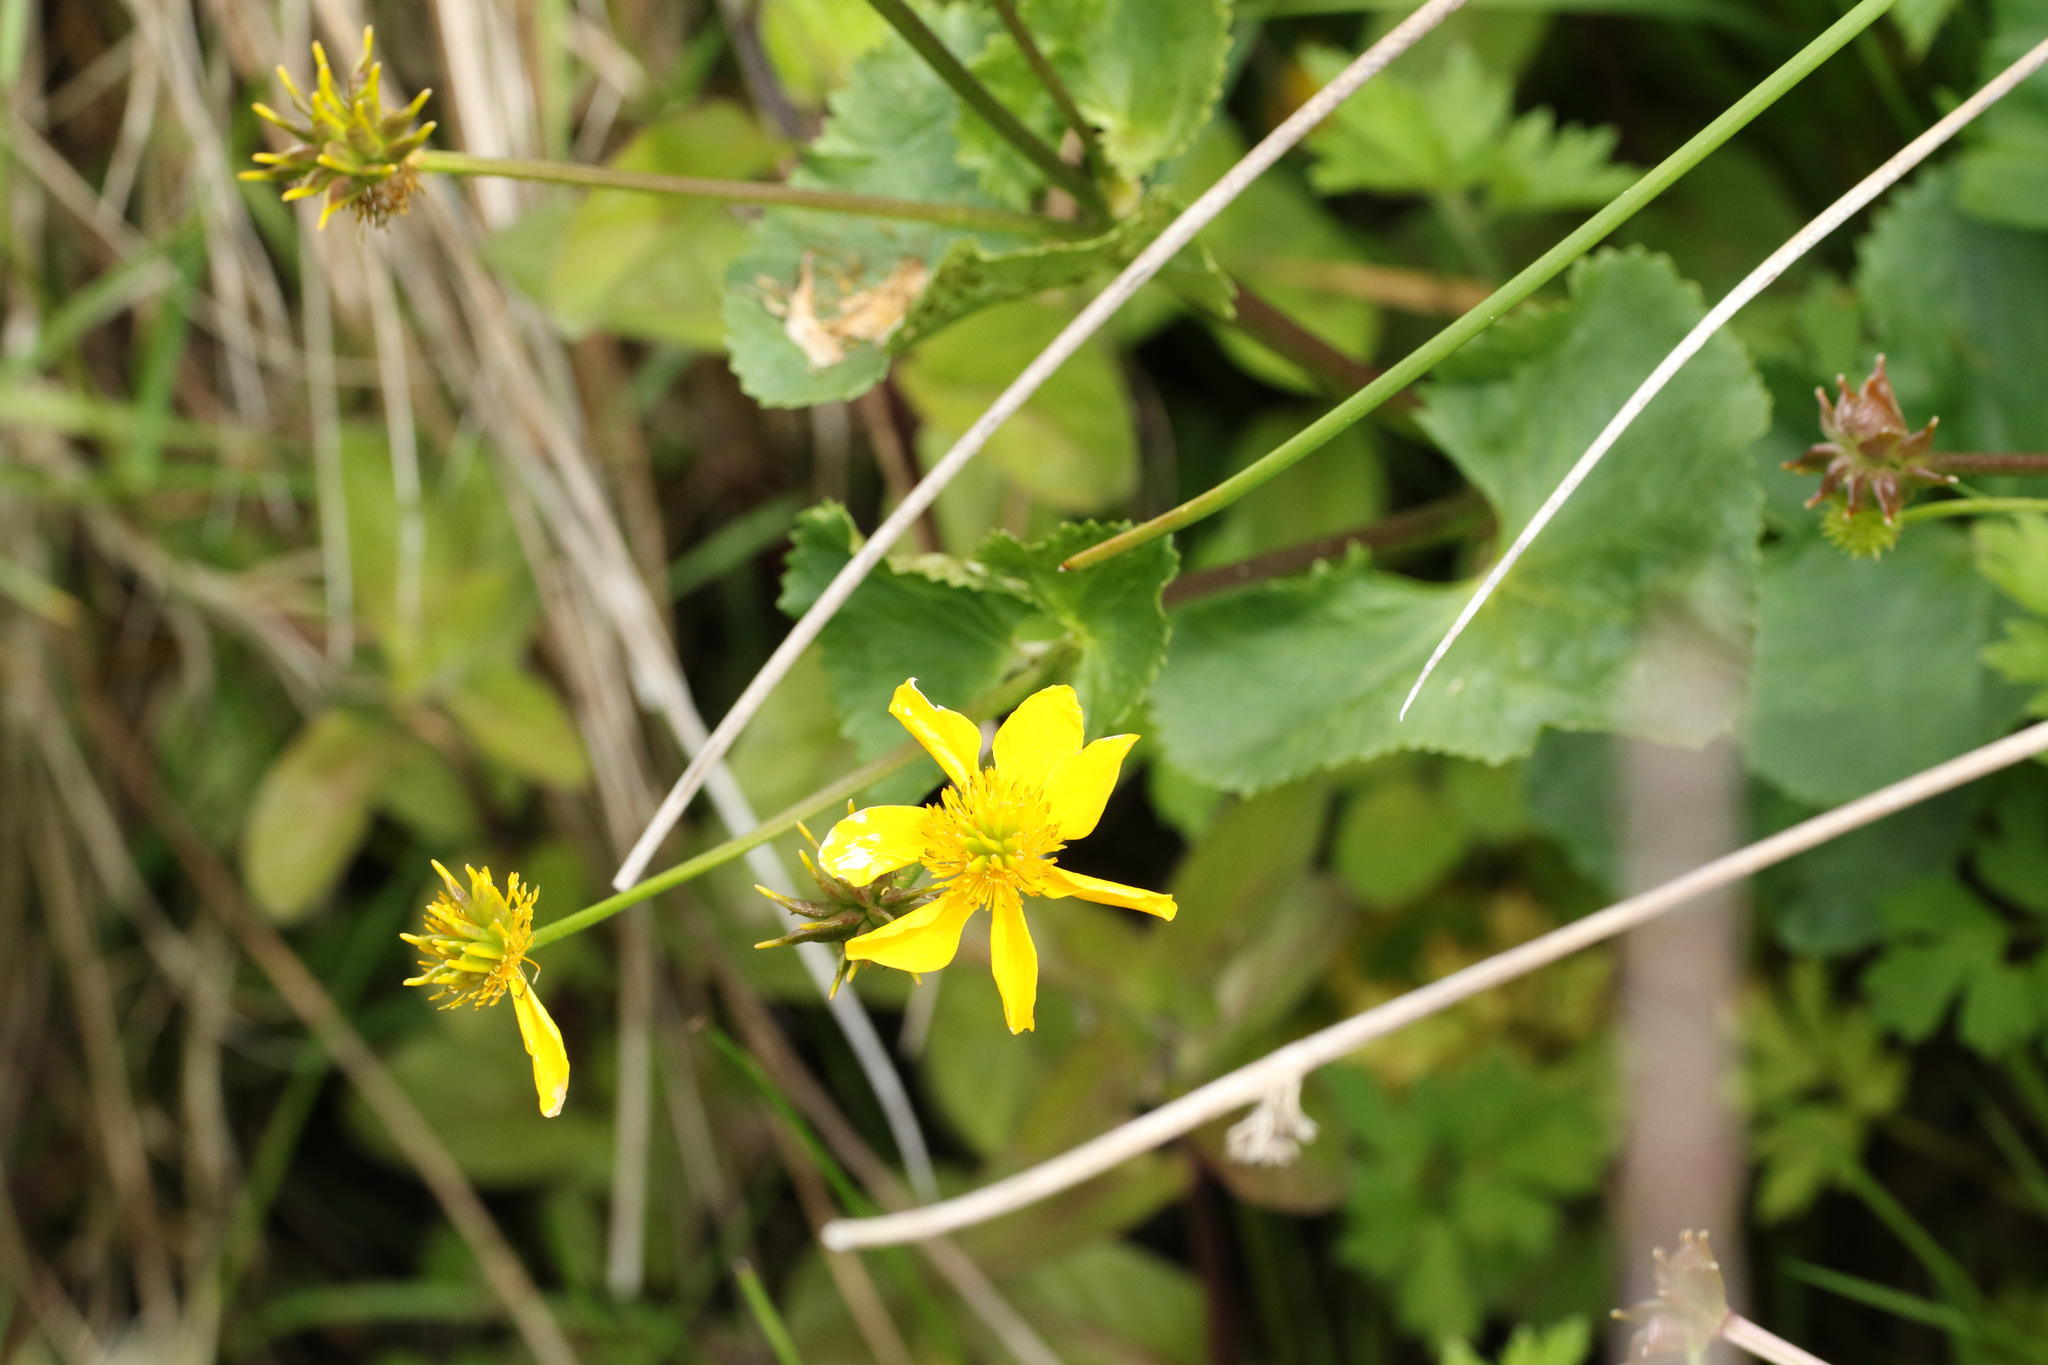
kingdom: Plantae
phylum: Tracheophyta
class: Magnoliopsida
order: Ranunculales
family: Ranunculaceae
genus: Caltha
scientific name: Caltha palustris
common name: Marsh marigold
